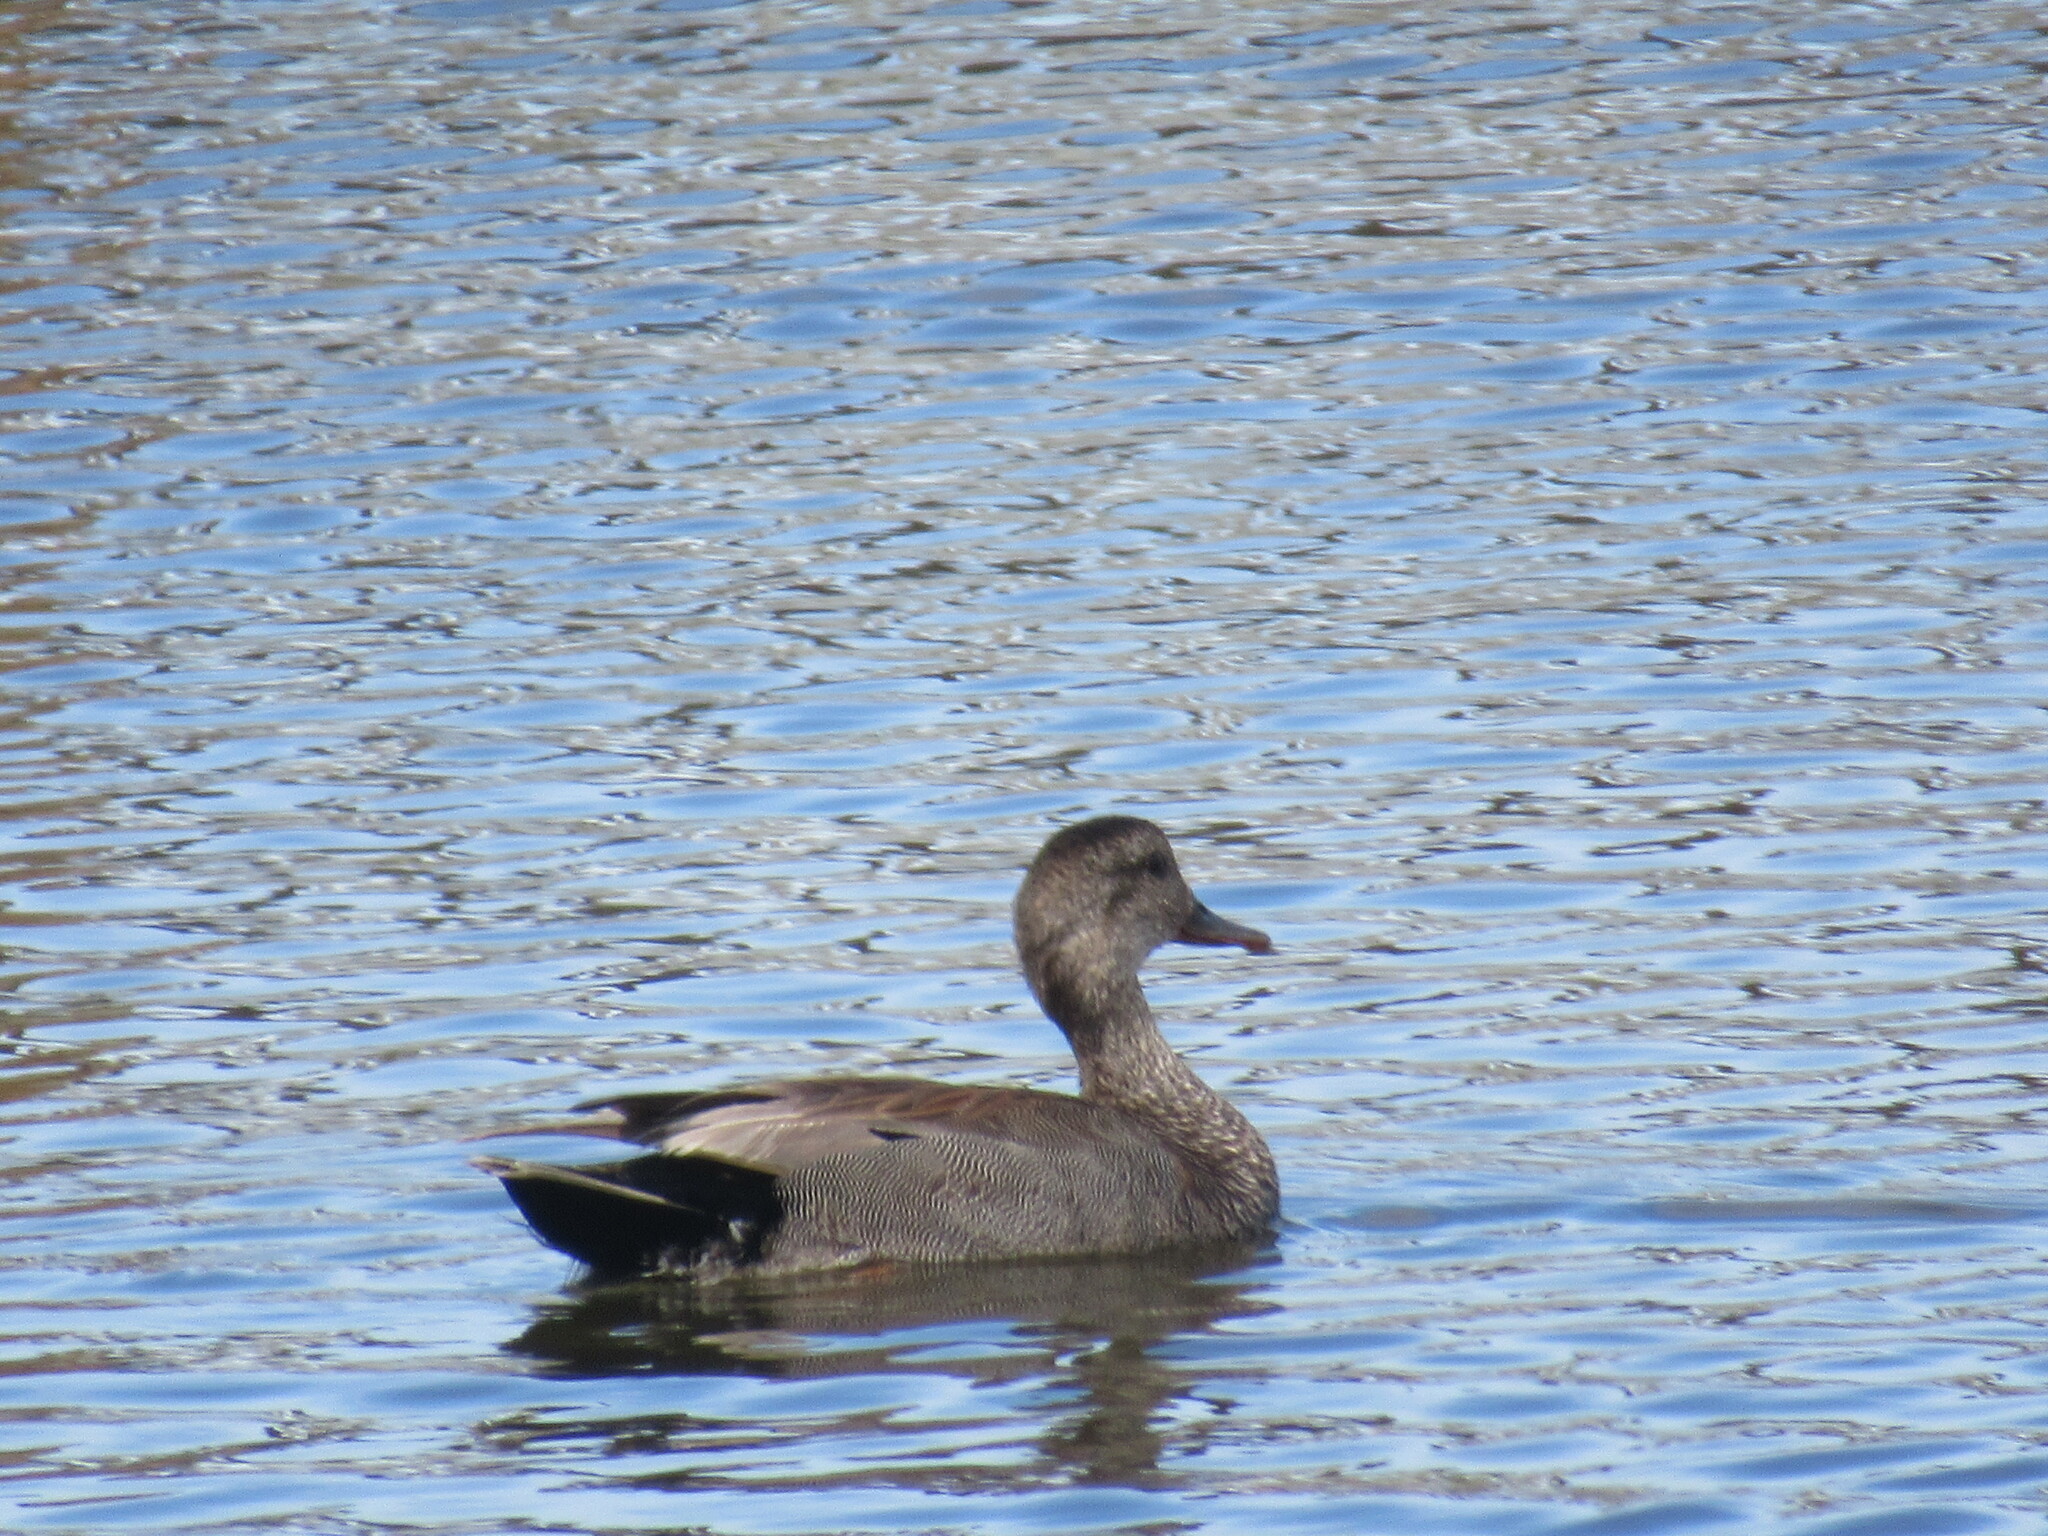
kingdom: Animalia
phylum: Chordata
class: Aves
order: Anseriformes
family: Anatidae
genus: Mareca
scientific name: Mareca strepera
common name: Gadwall
